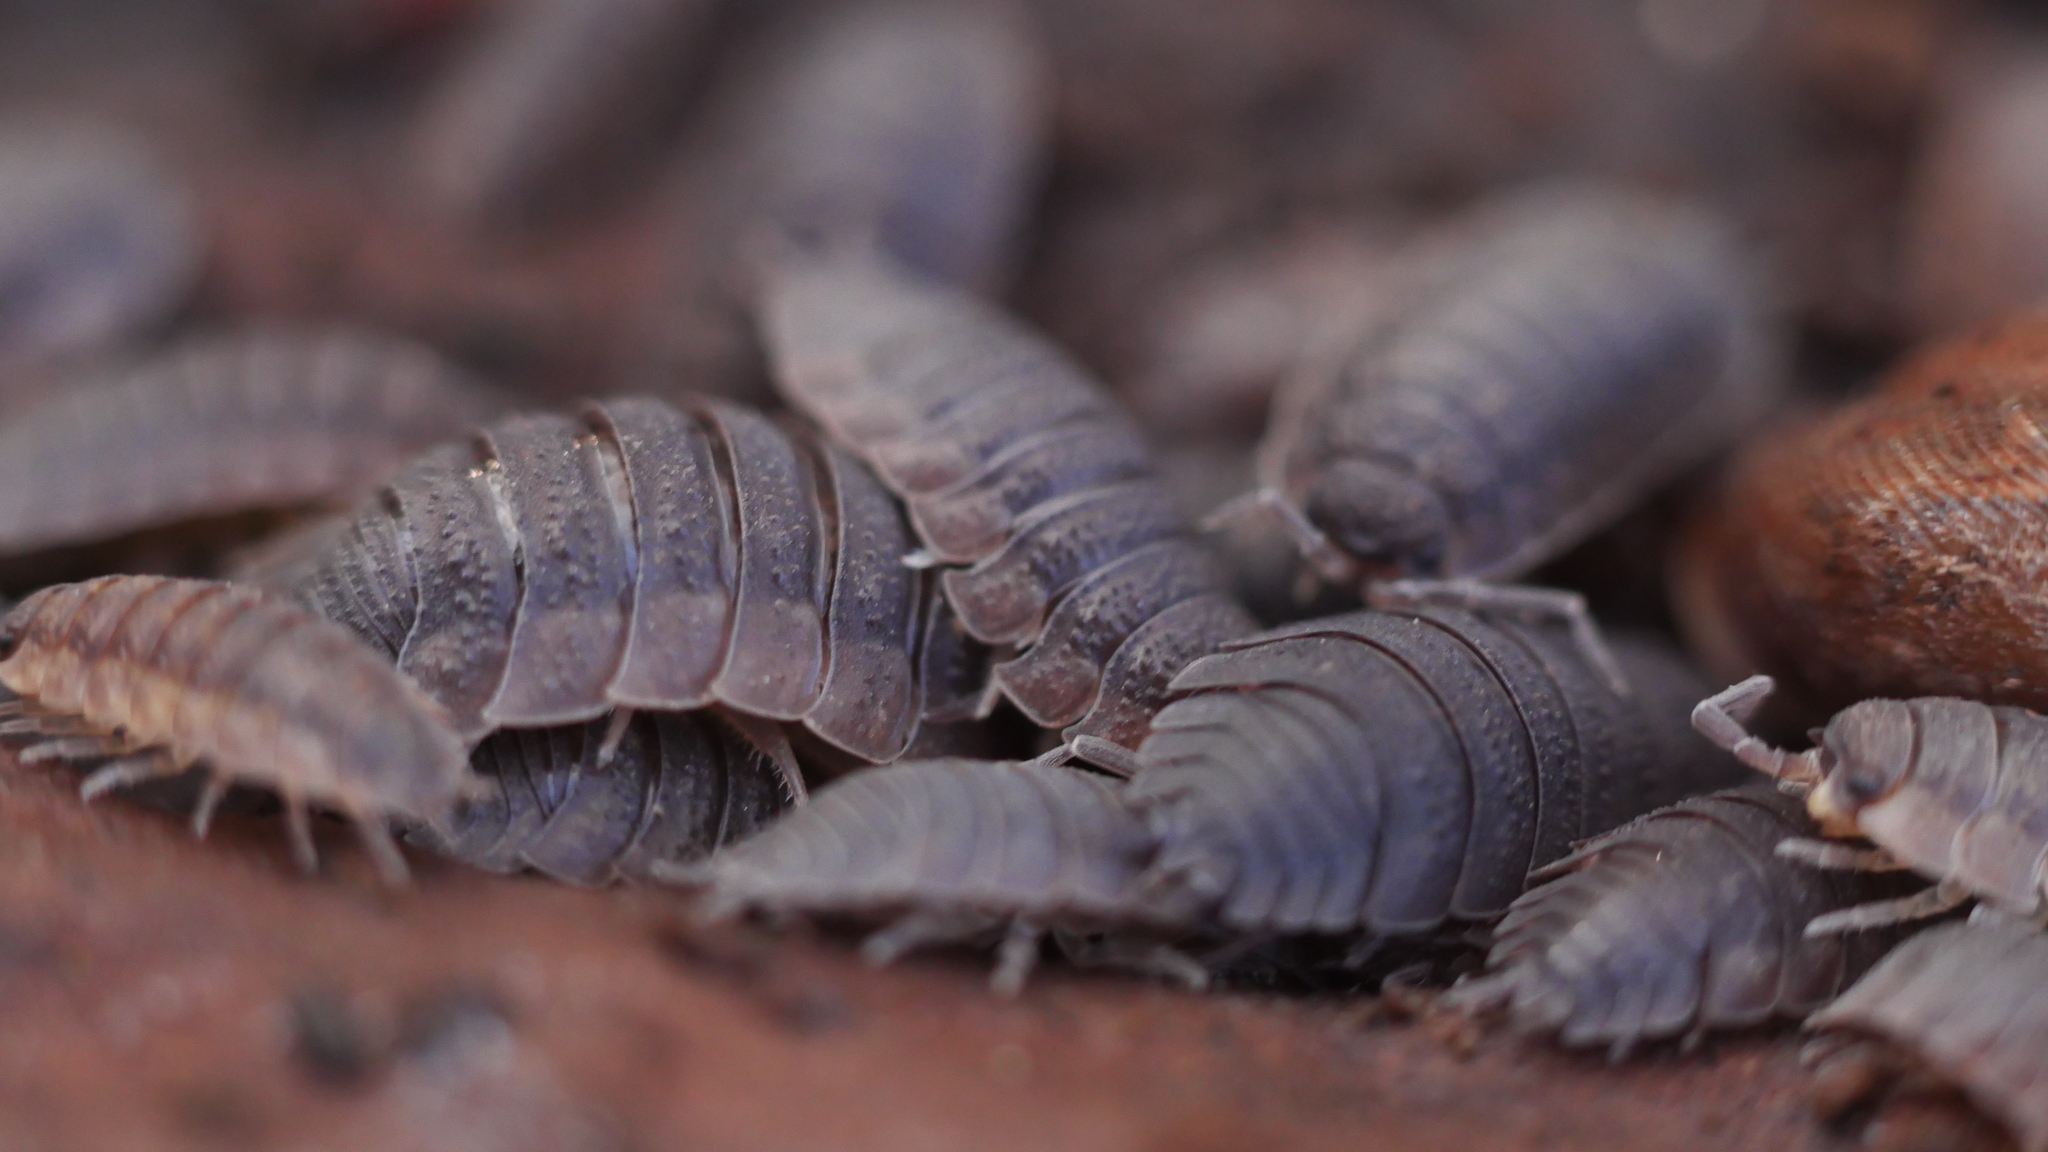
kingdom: Animalia
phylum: Arthropoda
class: Malacostraca
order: Isopoda
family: Porcellionidae
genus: Porcellio
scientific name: Porcellio scaber
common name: Common rough woodlouse
